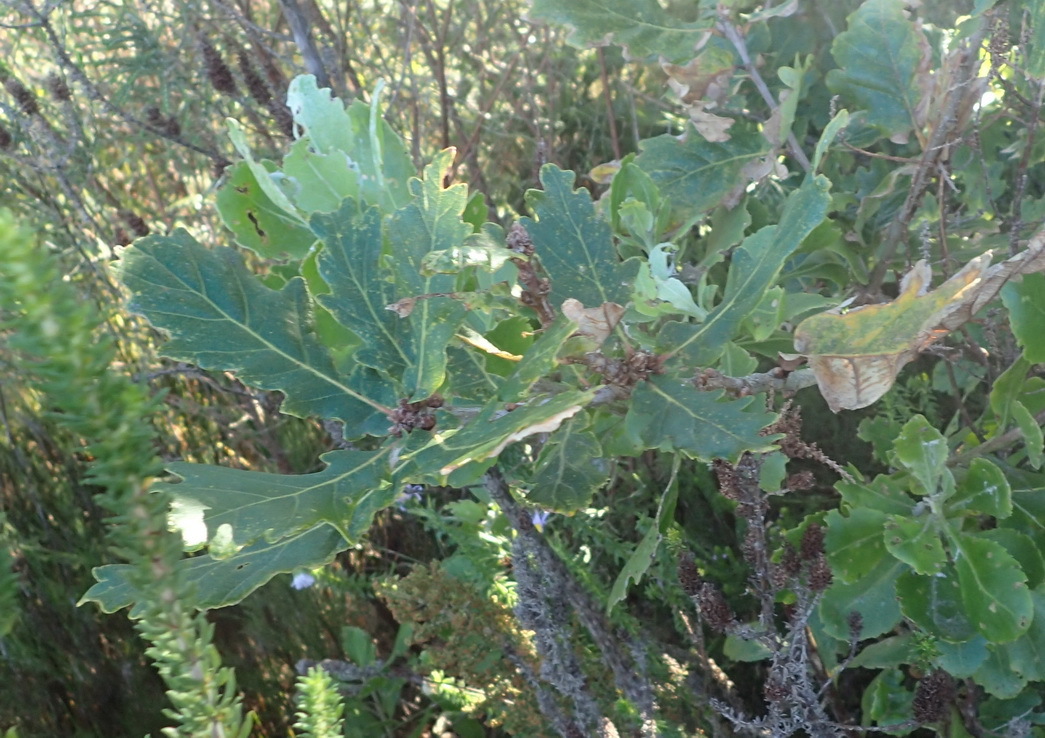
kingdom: Plantae
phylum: Tracheophyta
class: Magnoliopsida
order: Fagales
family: Fagaceae
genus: Quercus
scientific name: Quercus robur
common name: Pedunculate oak
